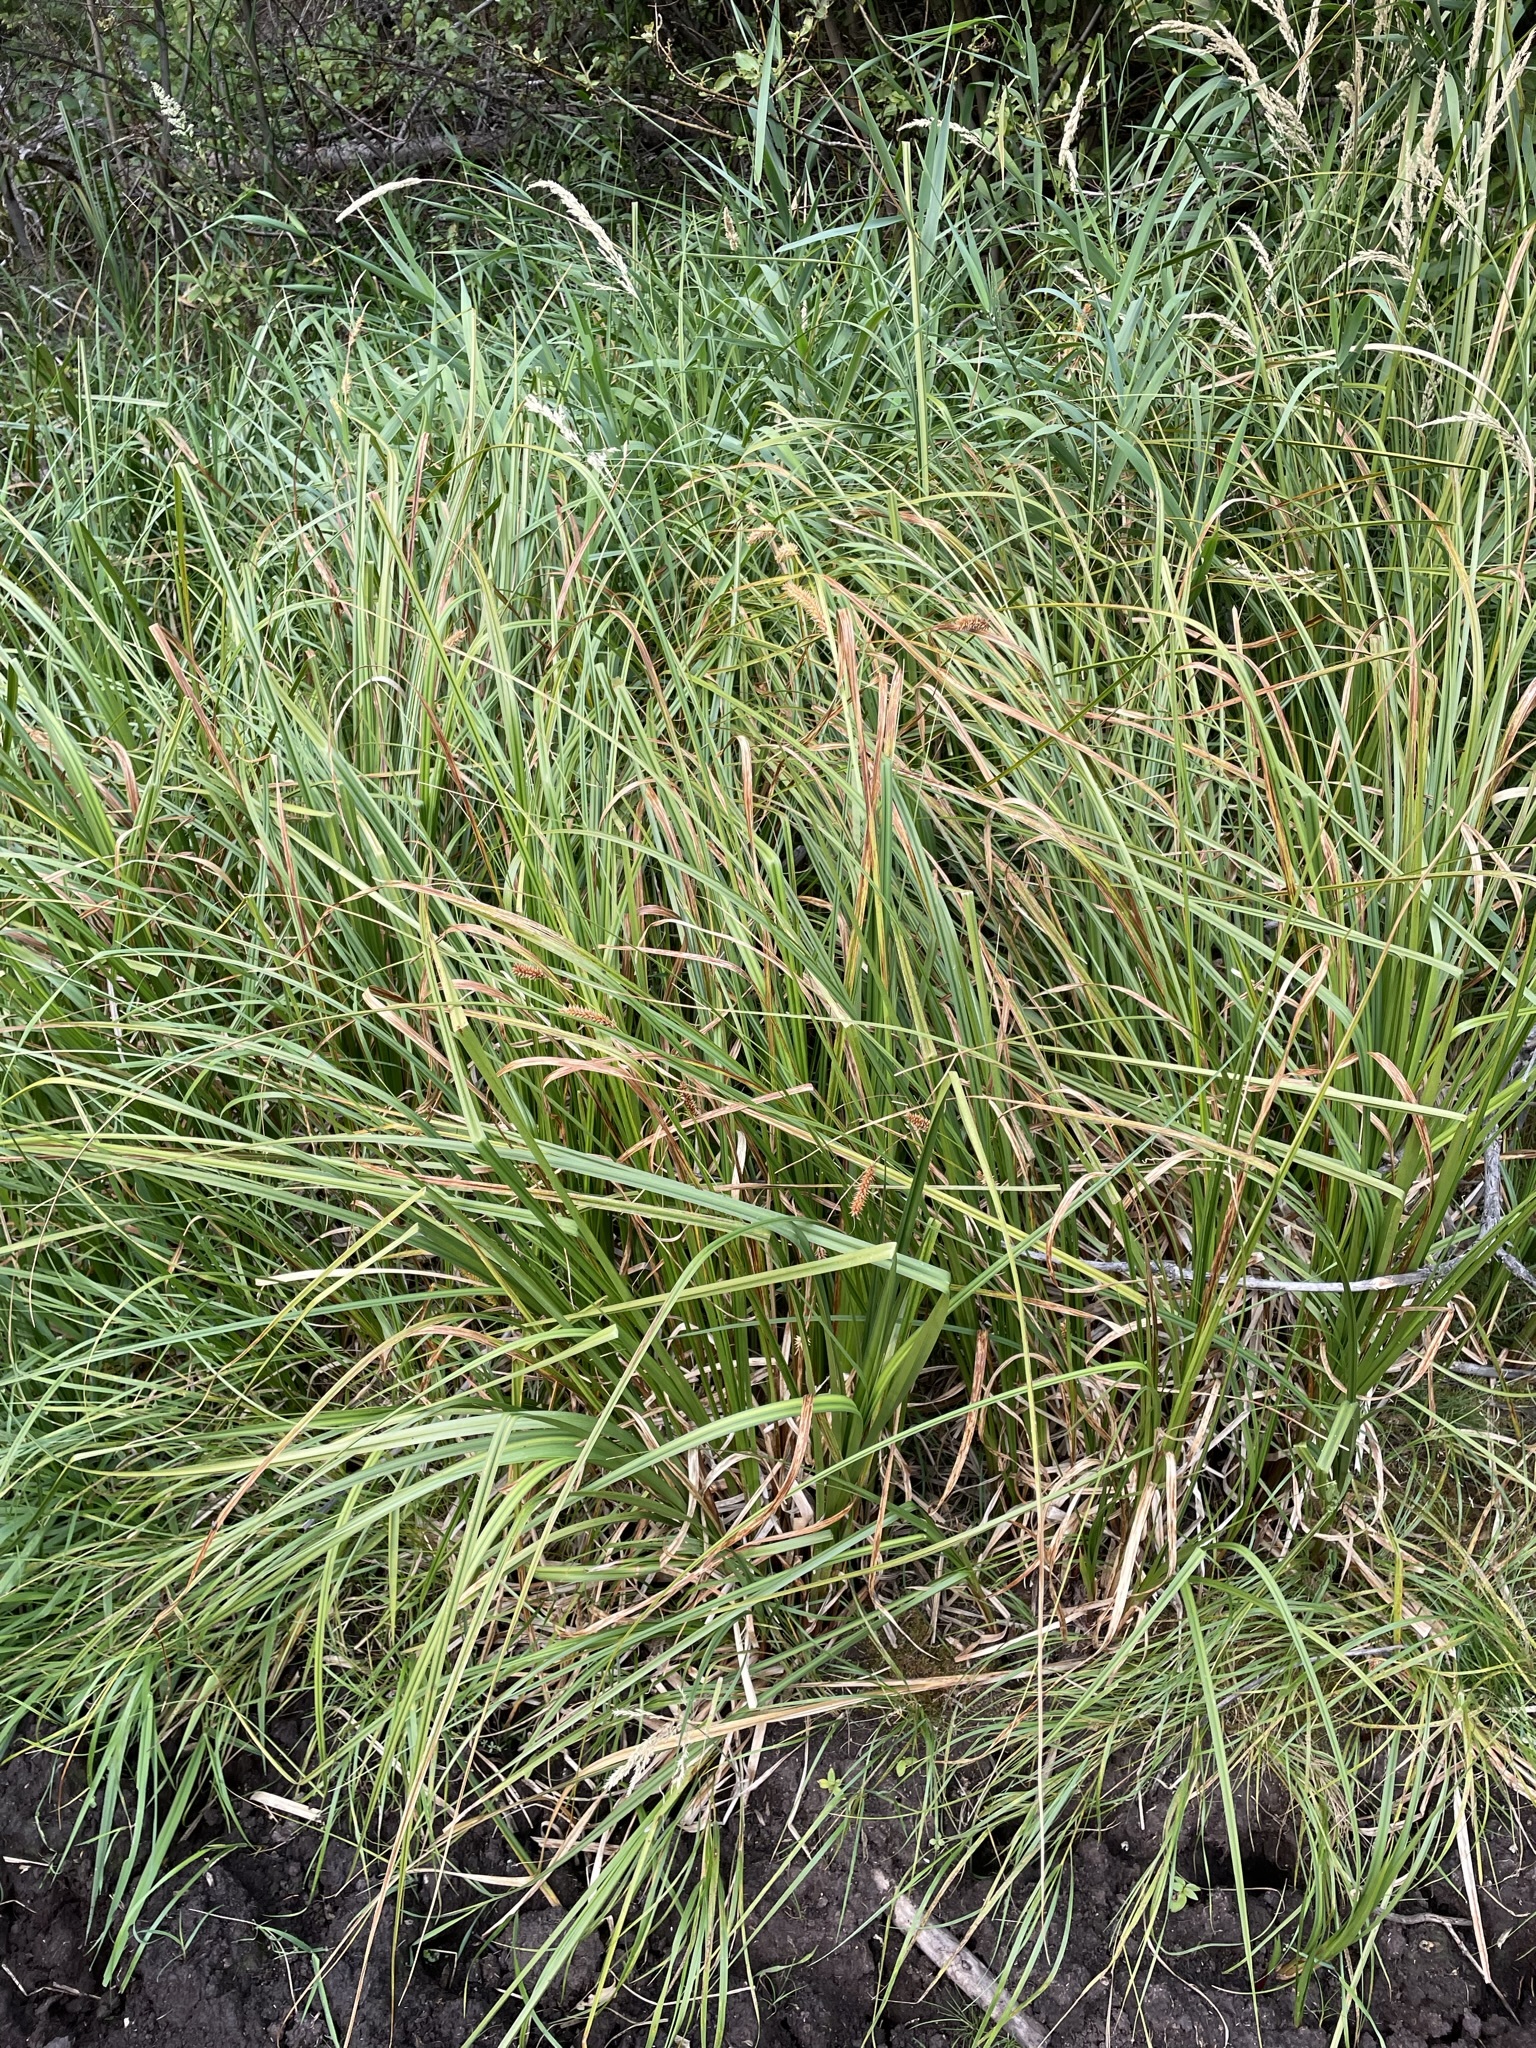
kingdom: Plantae
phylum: Tracheophyta
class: Liliopsida
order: Poales
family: Cyperaceae
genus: Carex
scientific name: Carex utriculata
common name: Beaked sedge
